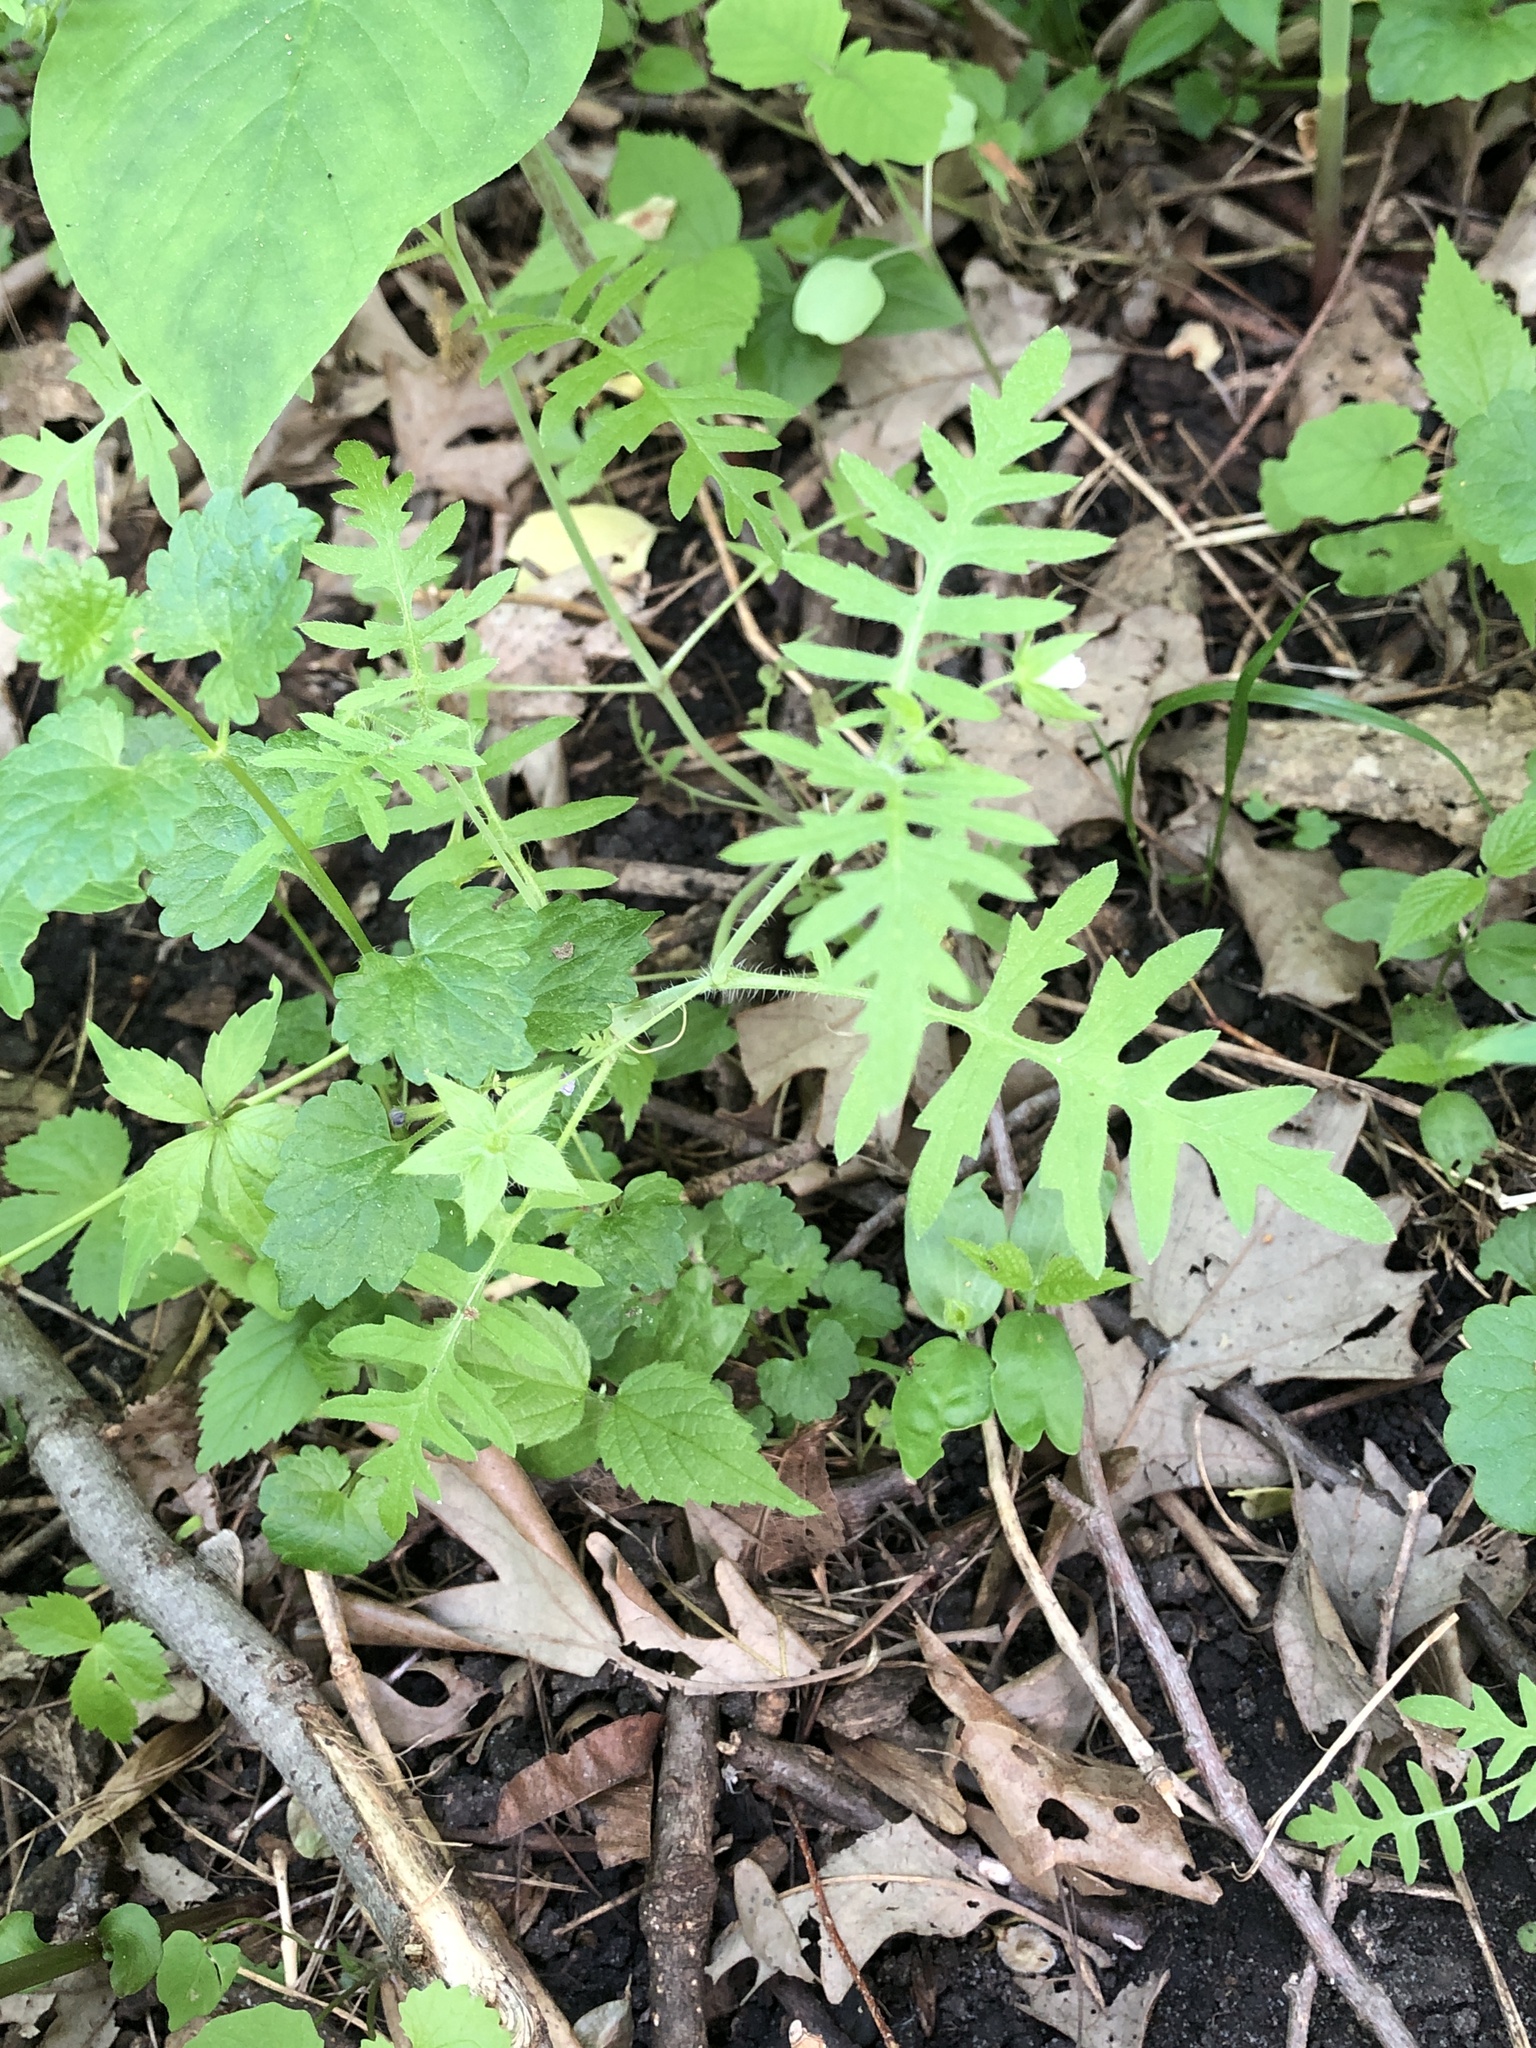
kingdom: Plantae
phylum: Tracheophyta
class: Magnoliopsida
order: Boraginales
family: Hydrophyllaceae
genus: Ellisia
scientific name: Ellisia nyctelea
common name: Aunt lucy
